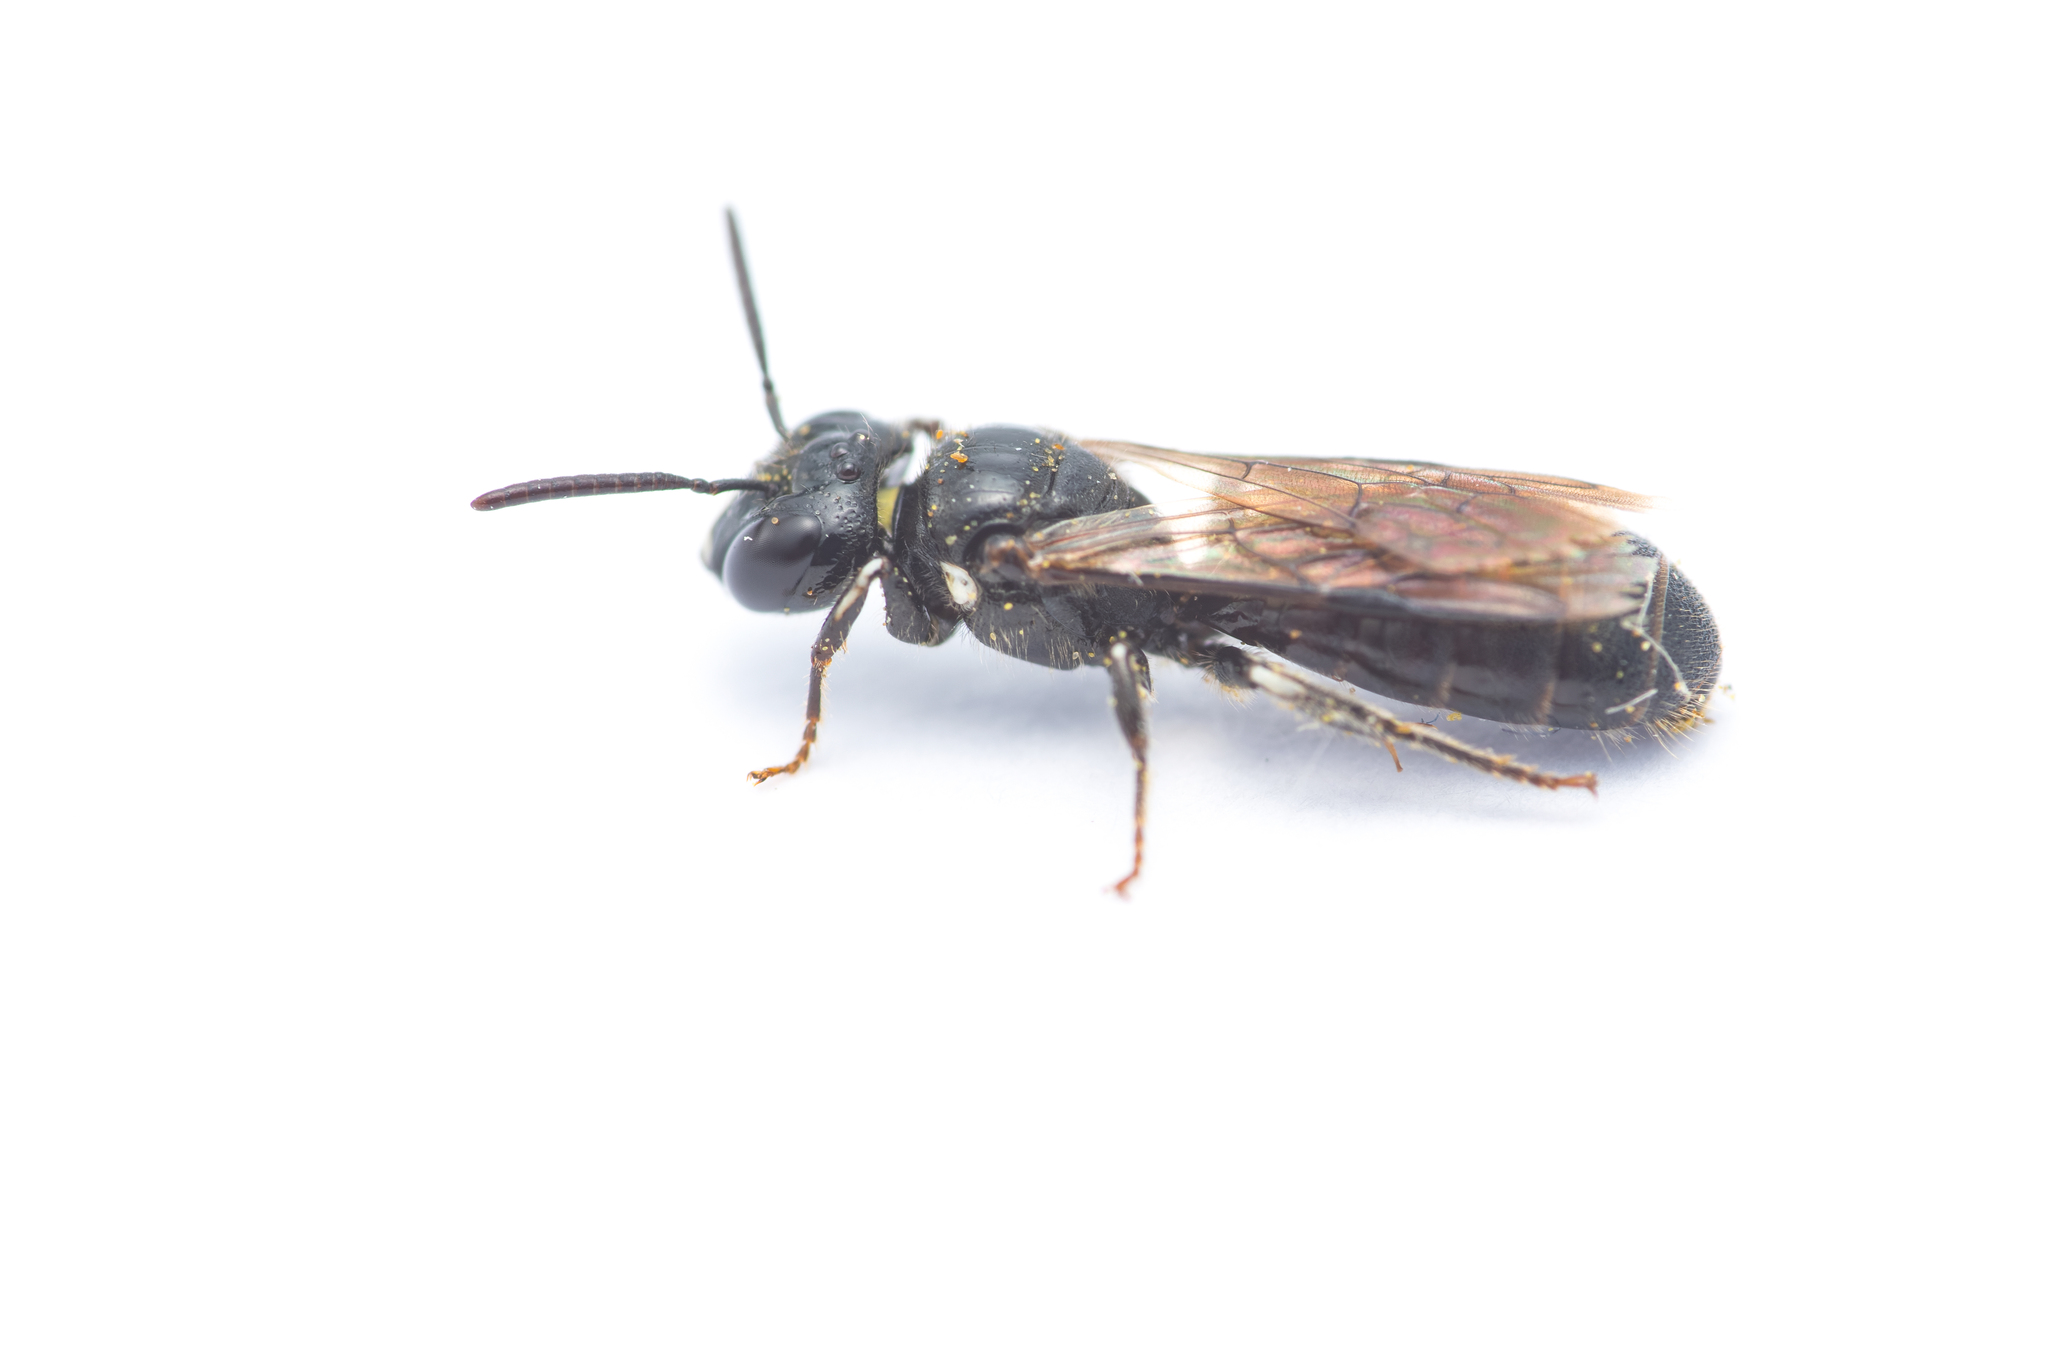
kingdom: Animalia
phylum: Arthropoda
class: Insecta
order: Hymenoptera
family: Apidae
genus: Ceratina
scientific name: Ceratina cucurbitina
